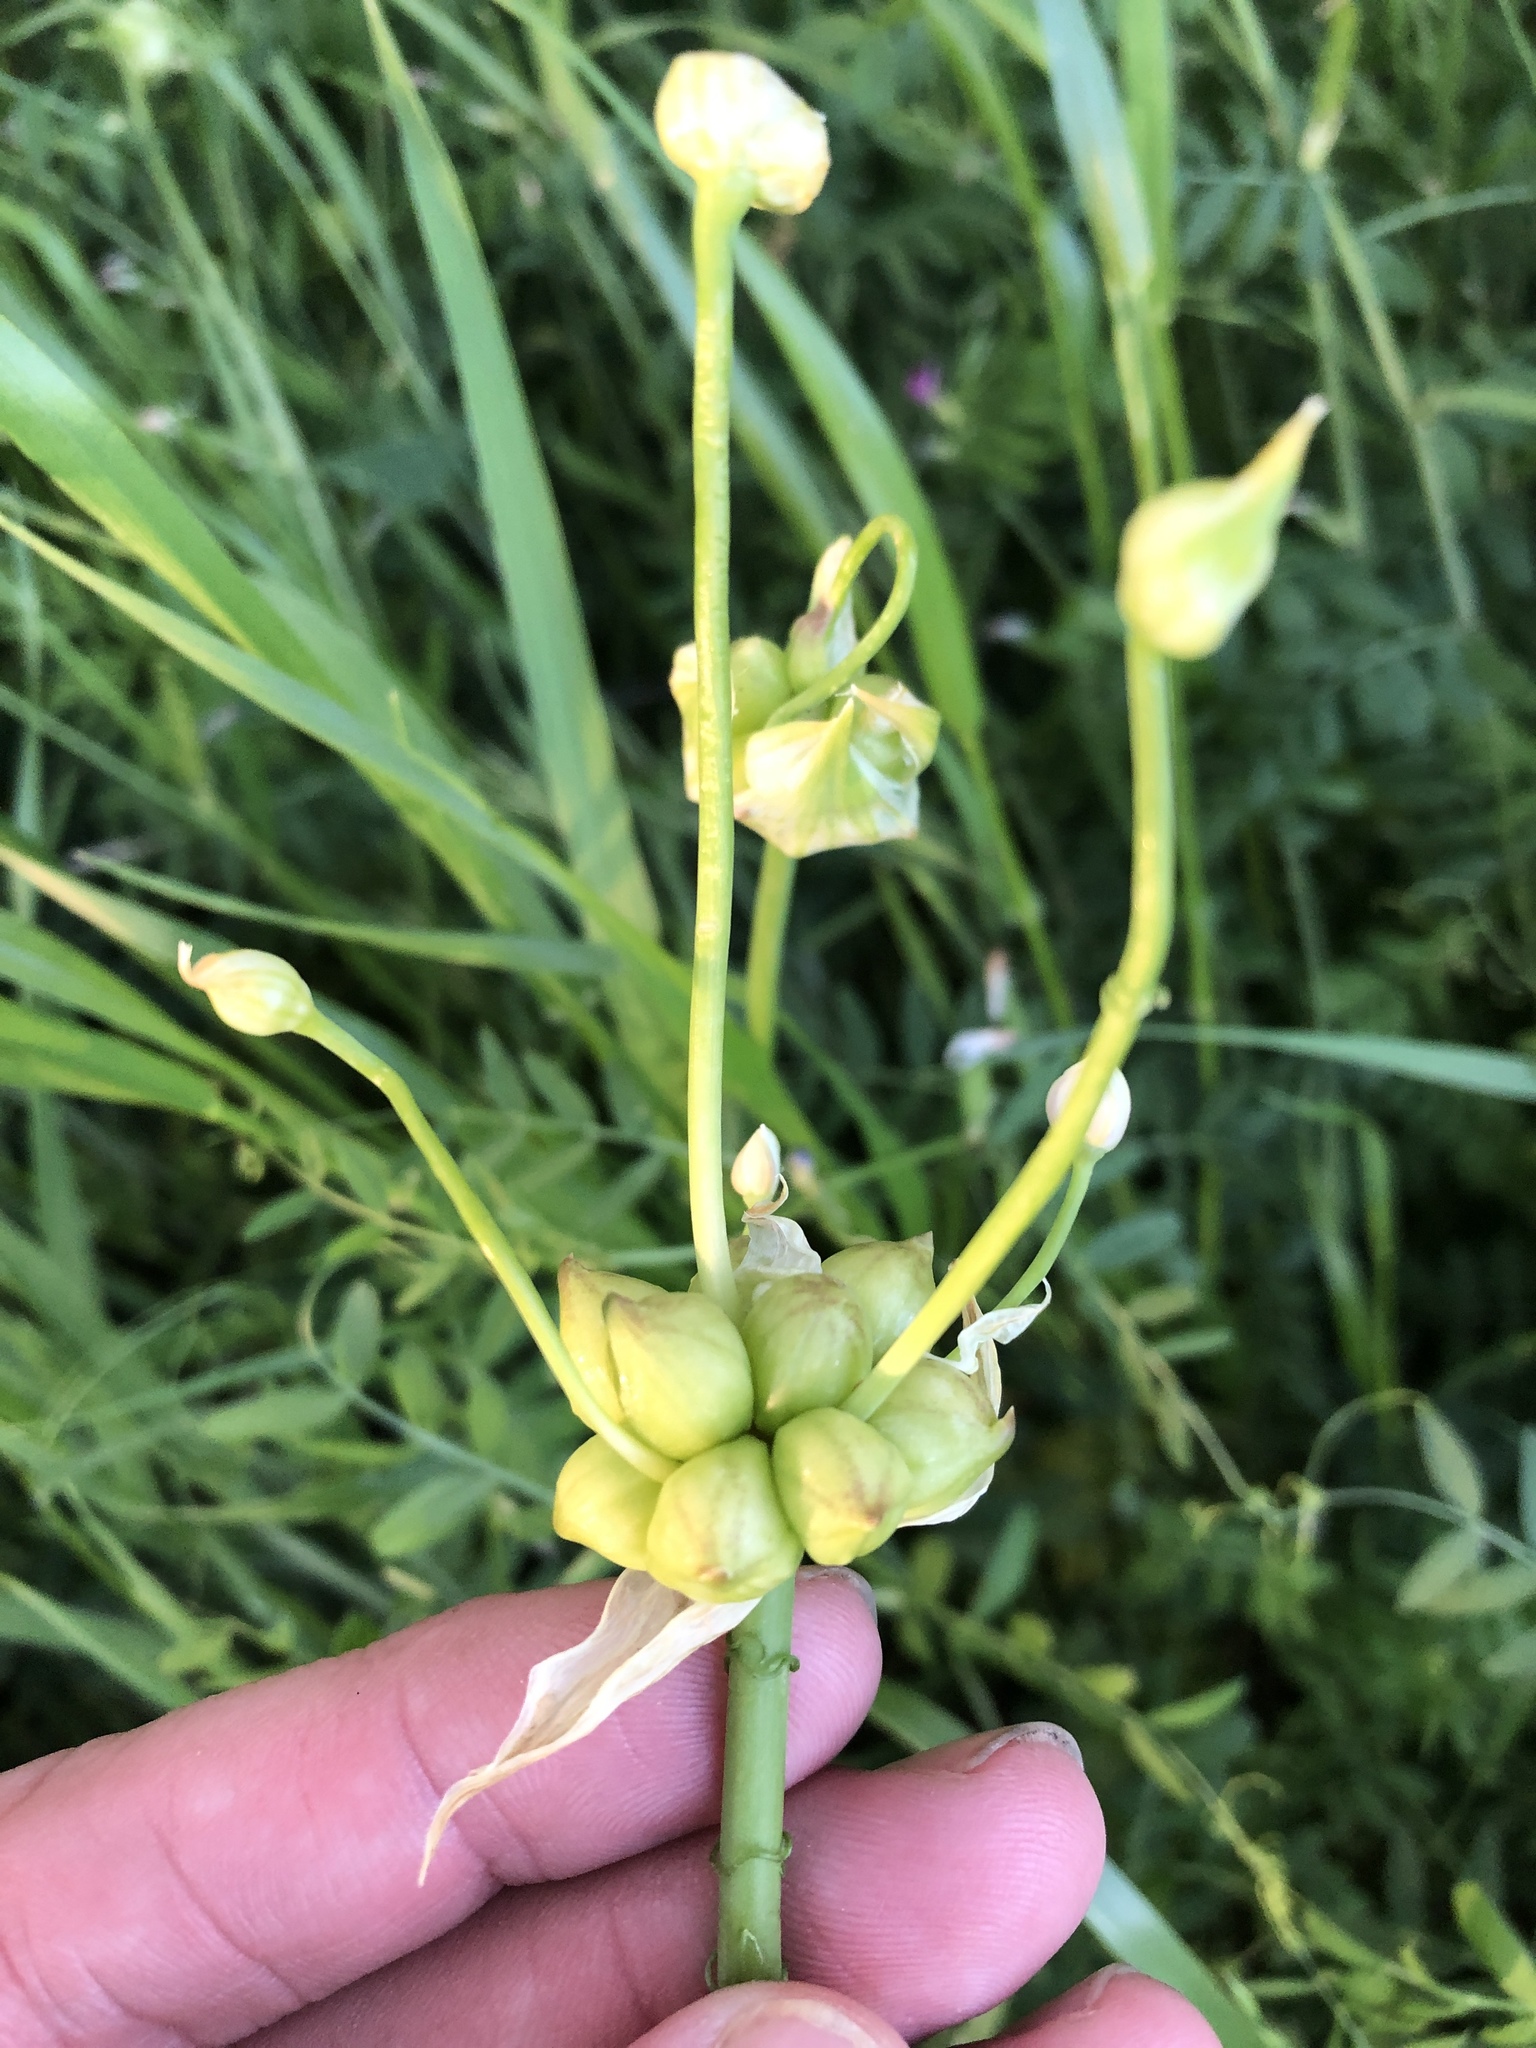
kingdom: Plantae
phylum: Tracheophyta
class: Liliopsida
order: Asparagales
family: Amaryllidaceae
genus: Allium
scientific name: Allium canadense
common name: Meadow garlic
